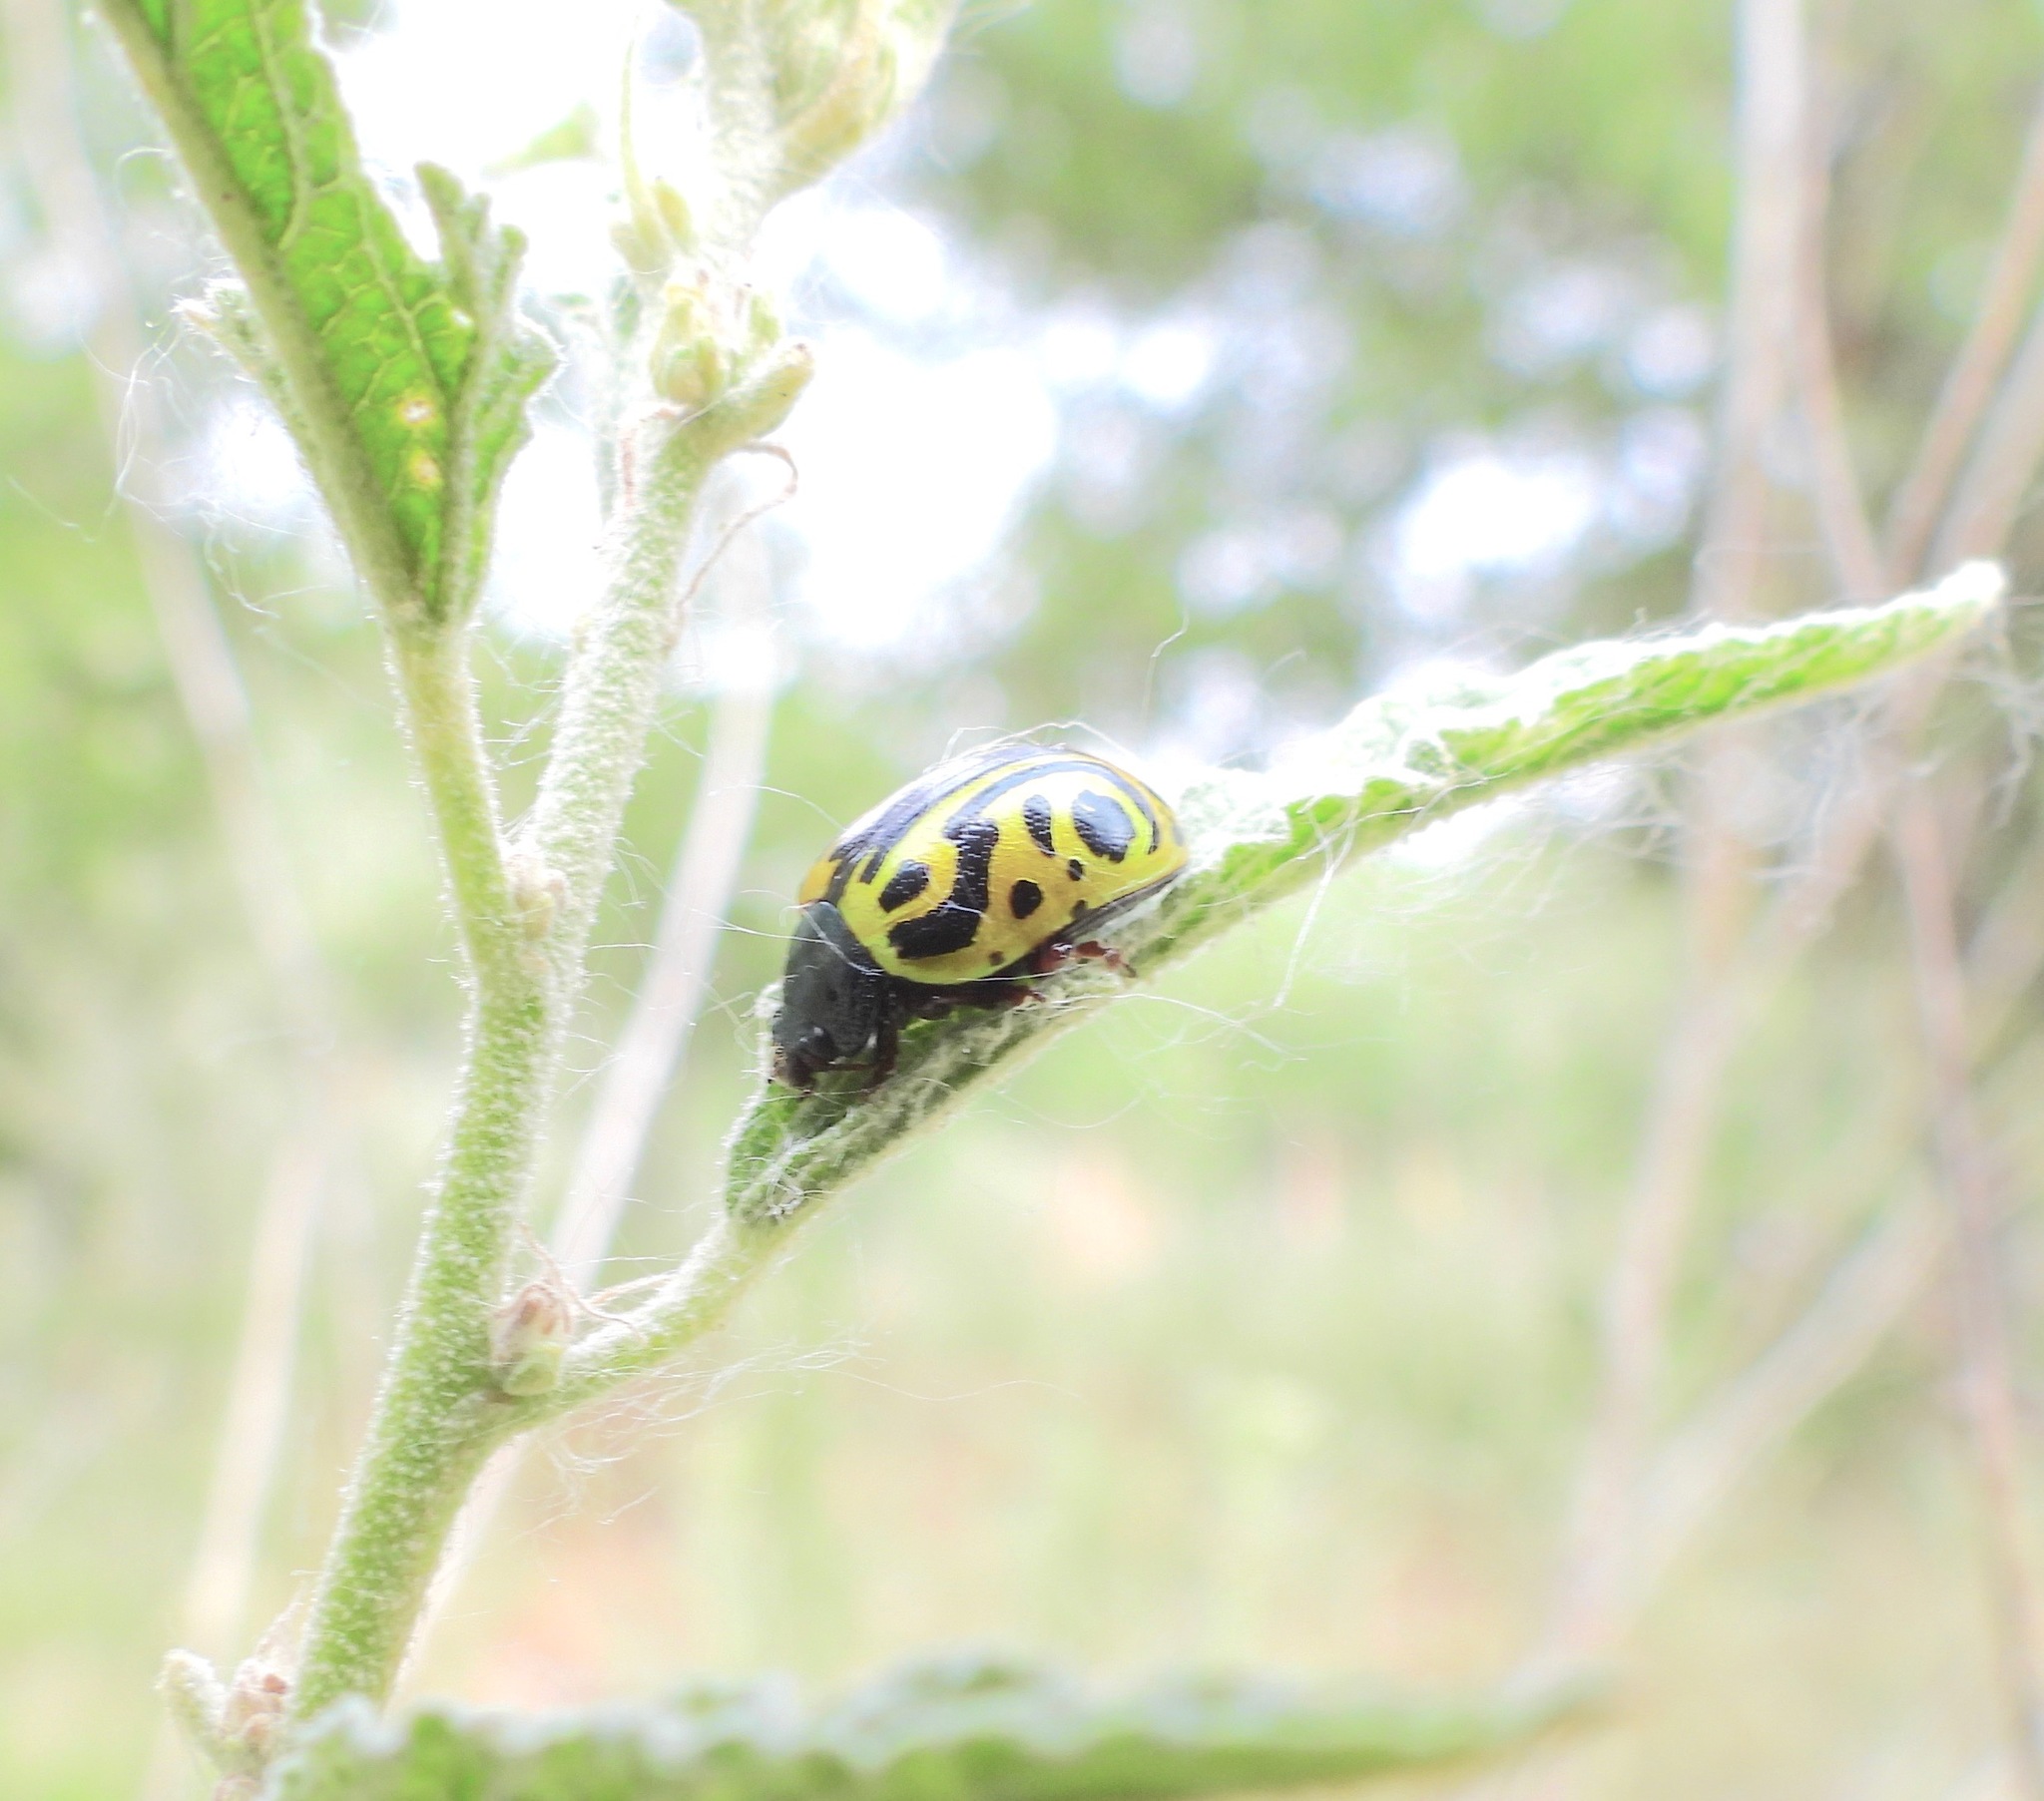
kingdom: Animalia
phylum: Arthropoda
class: Insecta
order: Coleoptera
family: Chrysomelidae
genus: Calligrapha
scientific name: Calligrapha serpentina
